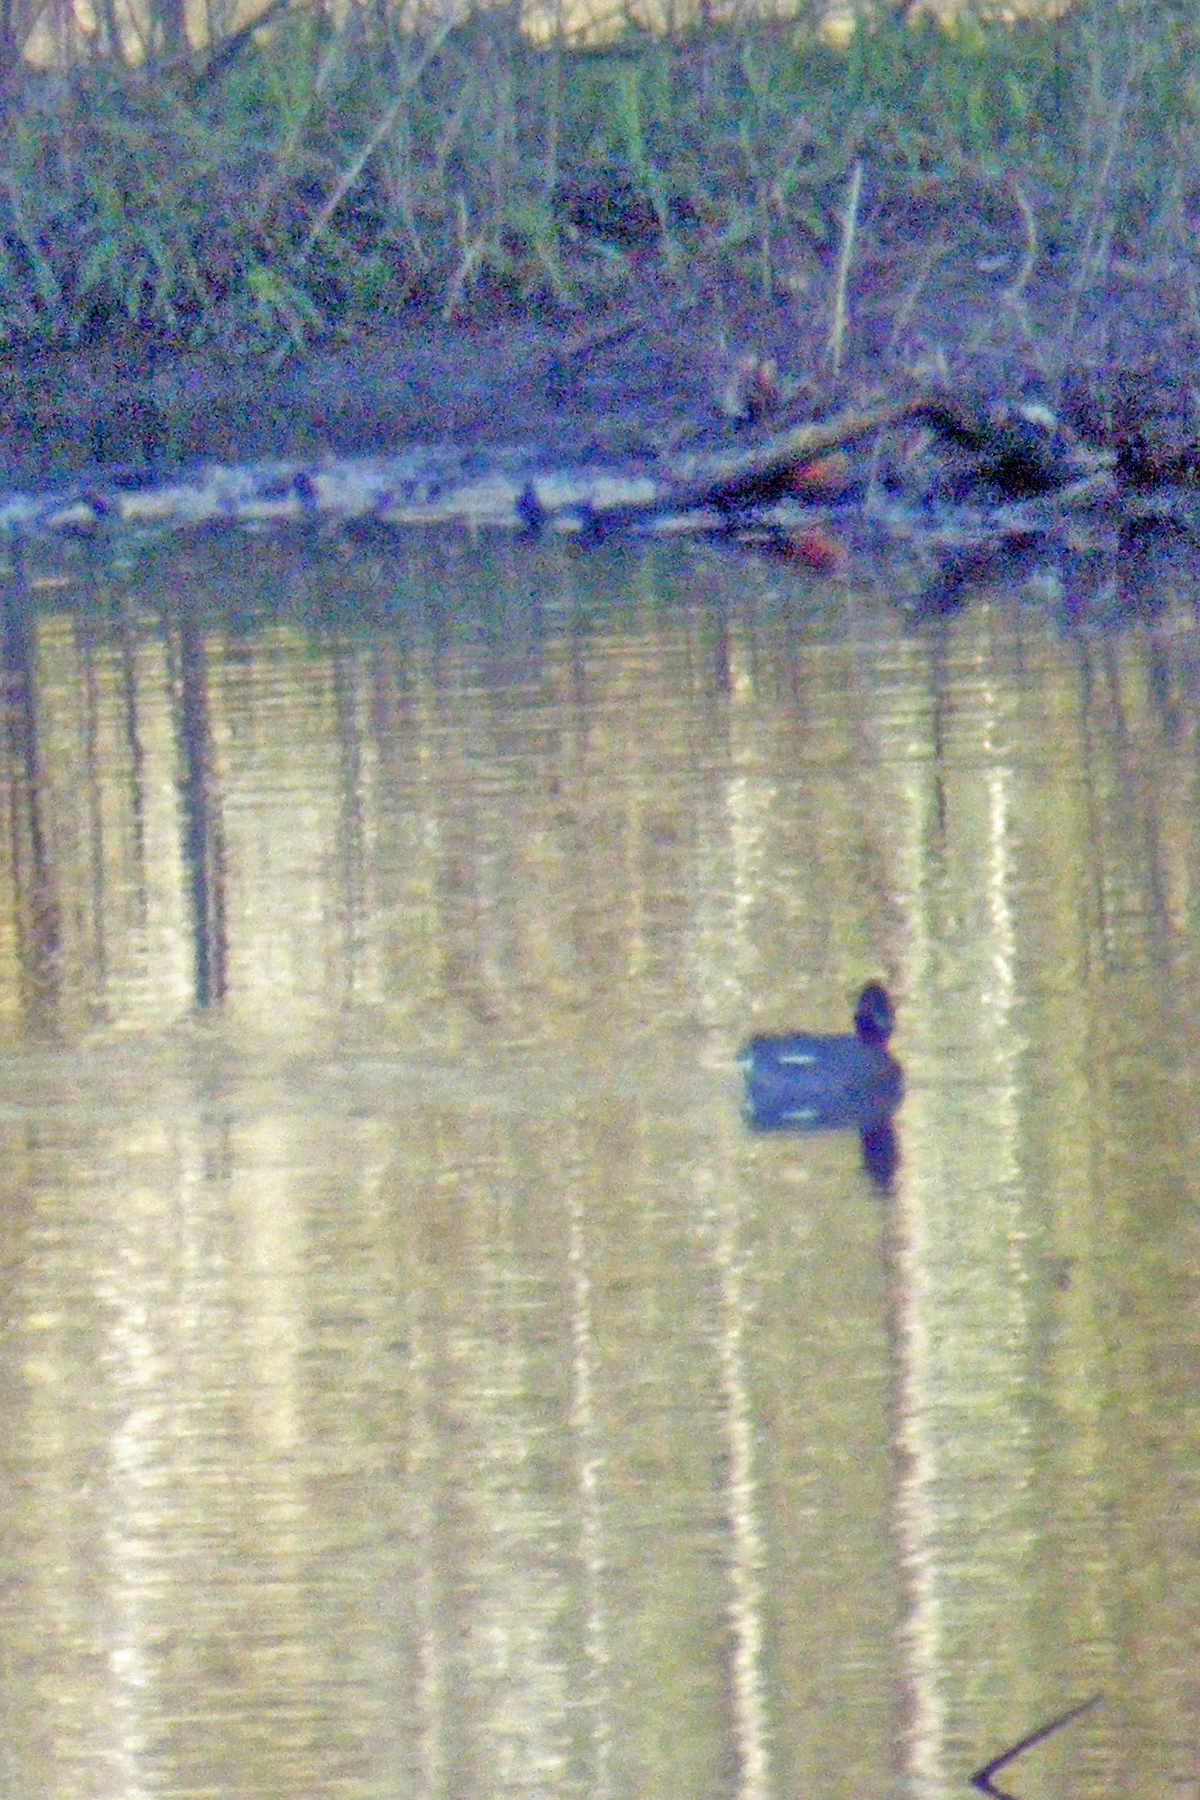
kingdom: Animalia
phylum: Chordata
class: Aves
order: Anseriformes
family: Anatidae
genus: Anas
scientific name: Anas crecca
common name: Eurasian teal
